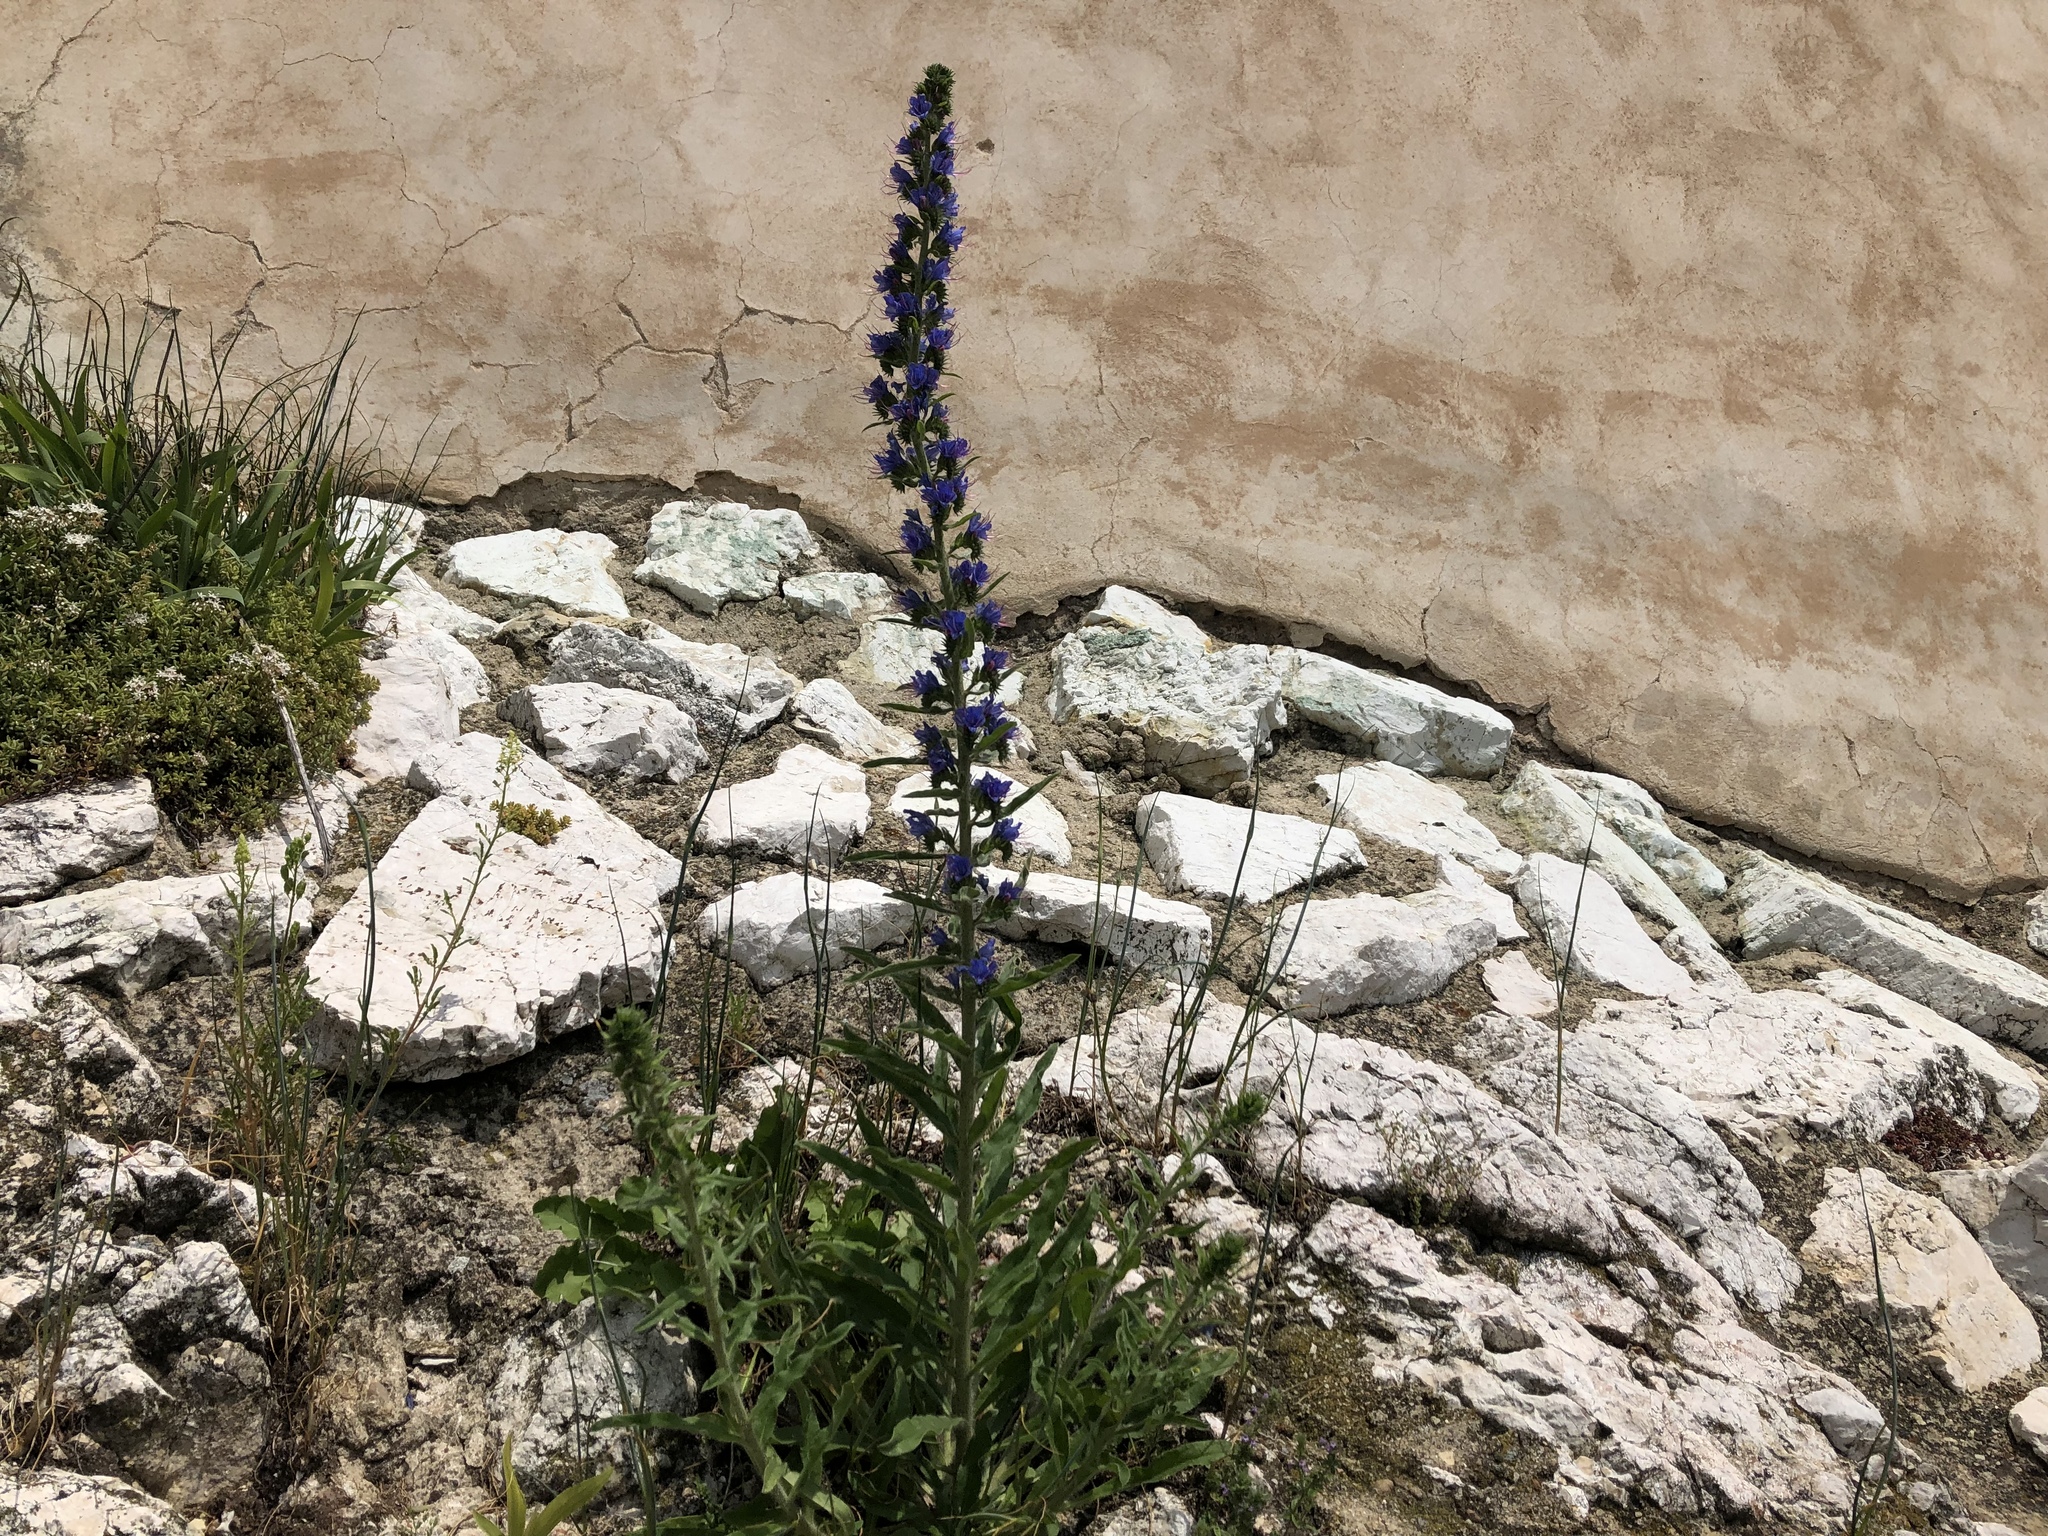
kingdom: Plantae
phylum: Tracheophyta
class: Magnoliopsida
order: Boraginales
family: Boraginaceae
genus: Echium
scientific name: Echium vulgare
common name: Common viper's bugloss
